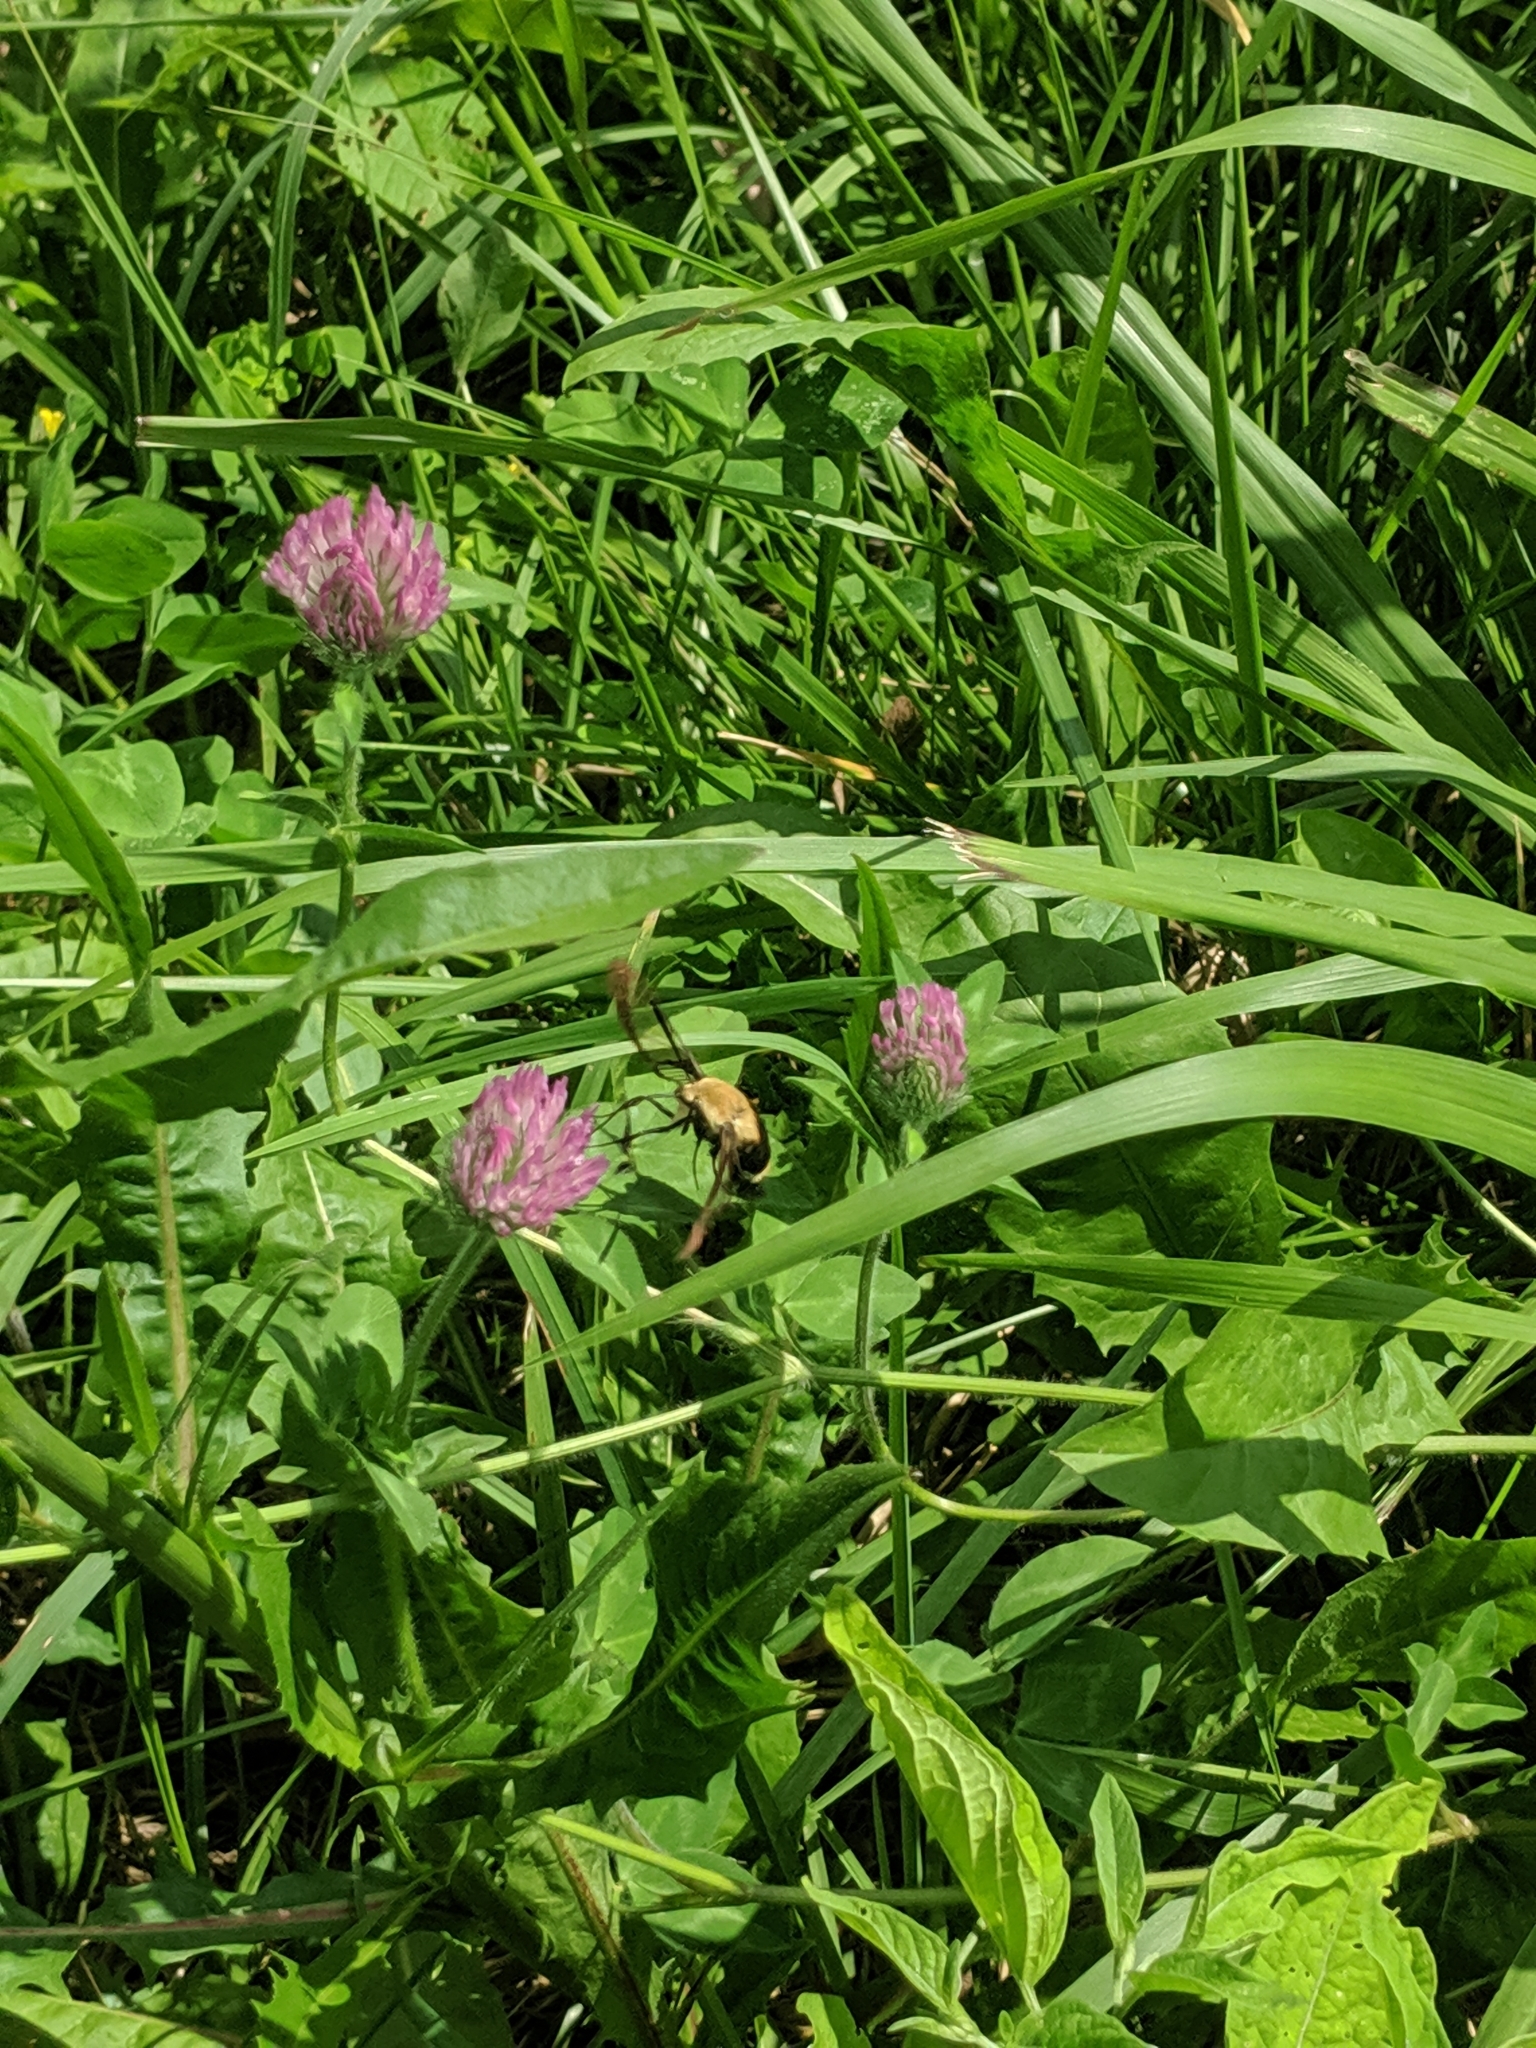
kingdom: Animalia
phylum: Arthropoda
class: Insecta
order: Lepidoptera
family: Sphingidae
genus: Hemaris
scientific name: Hemaris diffinis
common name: Bumblebee moth
